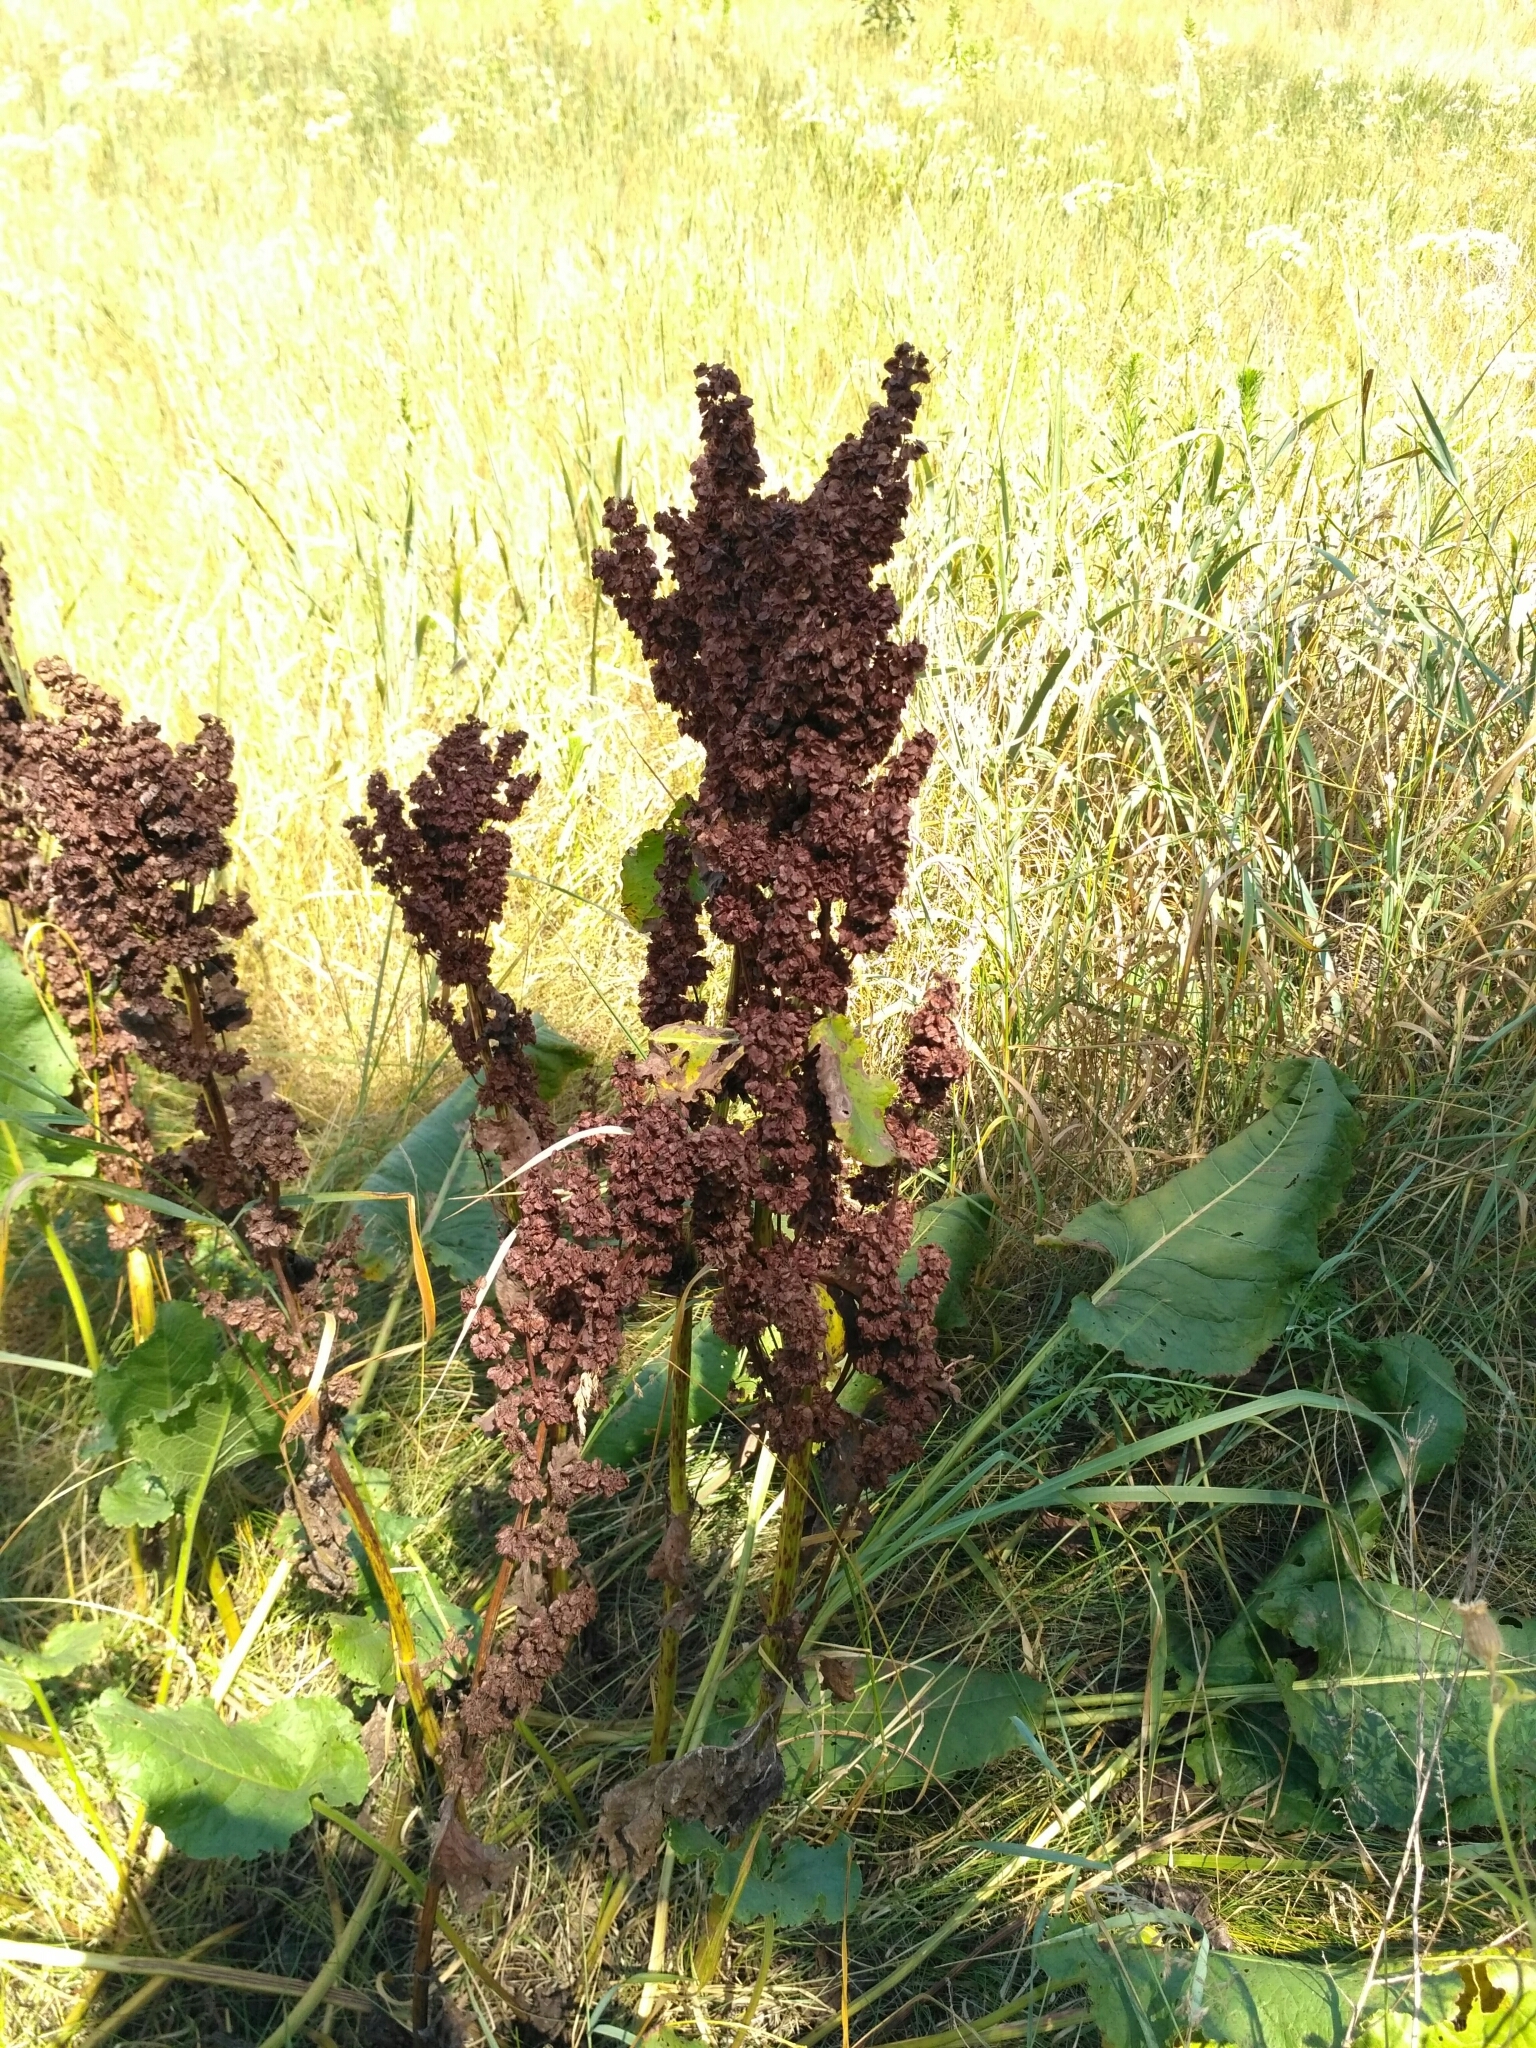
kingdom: Plantae
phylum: Tracheophyta
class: Magnoliopsida
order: Caryophyllales
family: Polygonaceae
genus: Rumex
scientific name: Rumex confertus
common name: Russian dock
